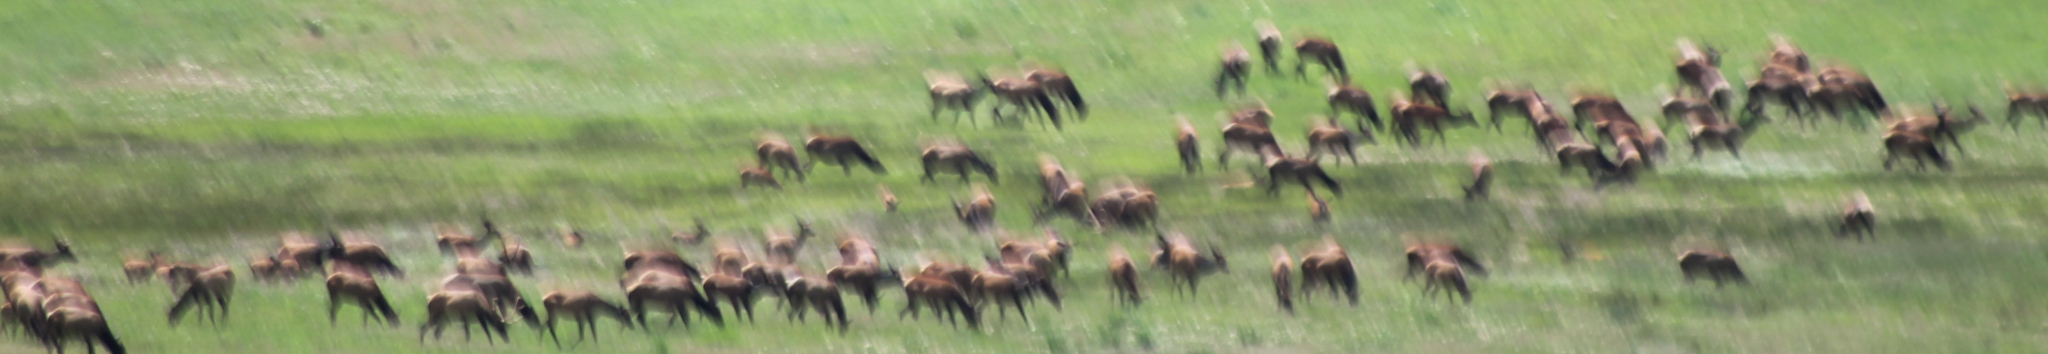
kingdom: Animalia
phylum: Chordata
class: Mammalia
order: Artiodactyla
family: Cervidae
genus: Cervus
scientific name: Cervus elaphus
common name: Red deer
